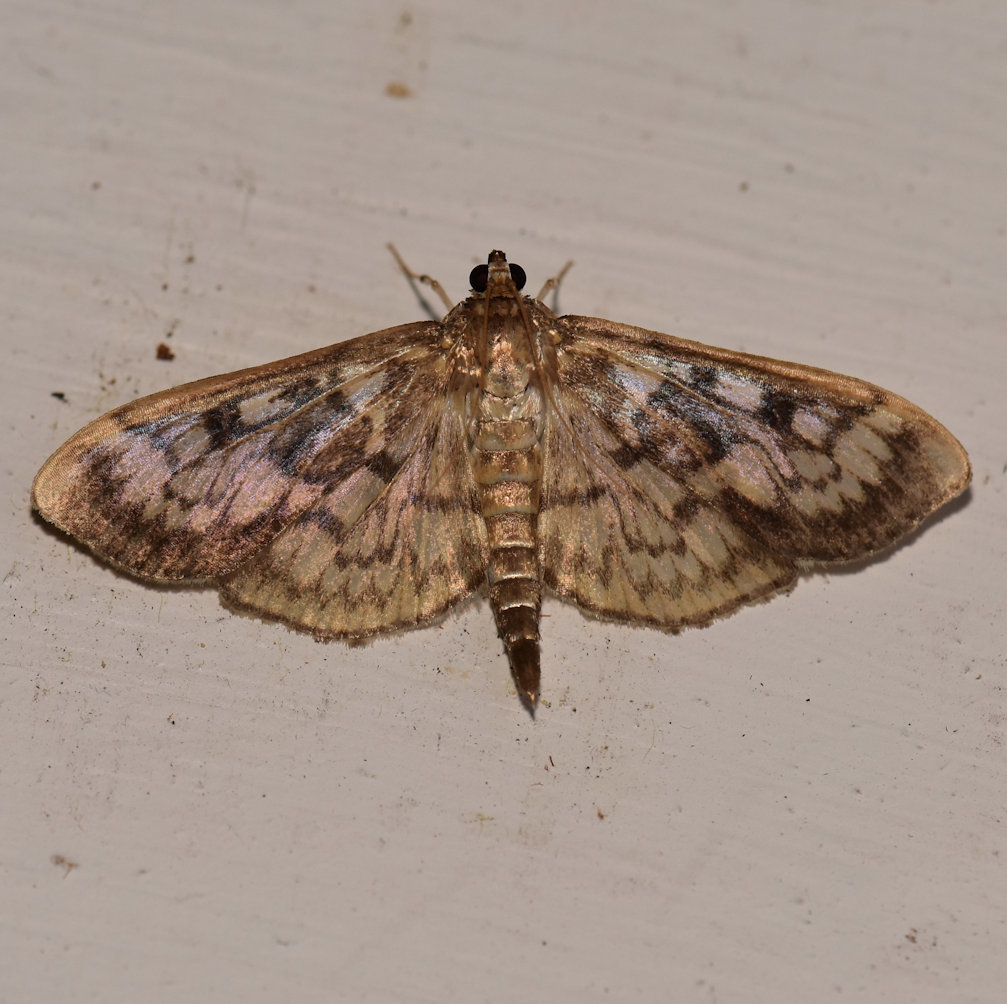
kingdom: Animalia
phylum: Arthropoda
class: Insecta
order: Lepidoptera
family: Crambidae
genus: Herpetogramma
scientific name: Herpetogramma thestealis
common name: Zigzag herpetogramma moth
